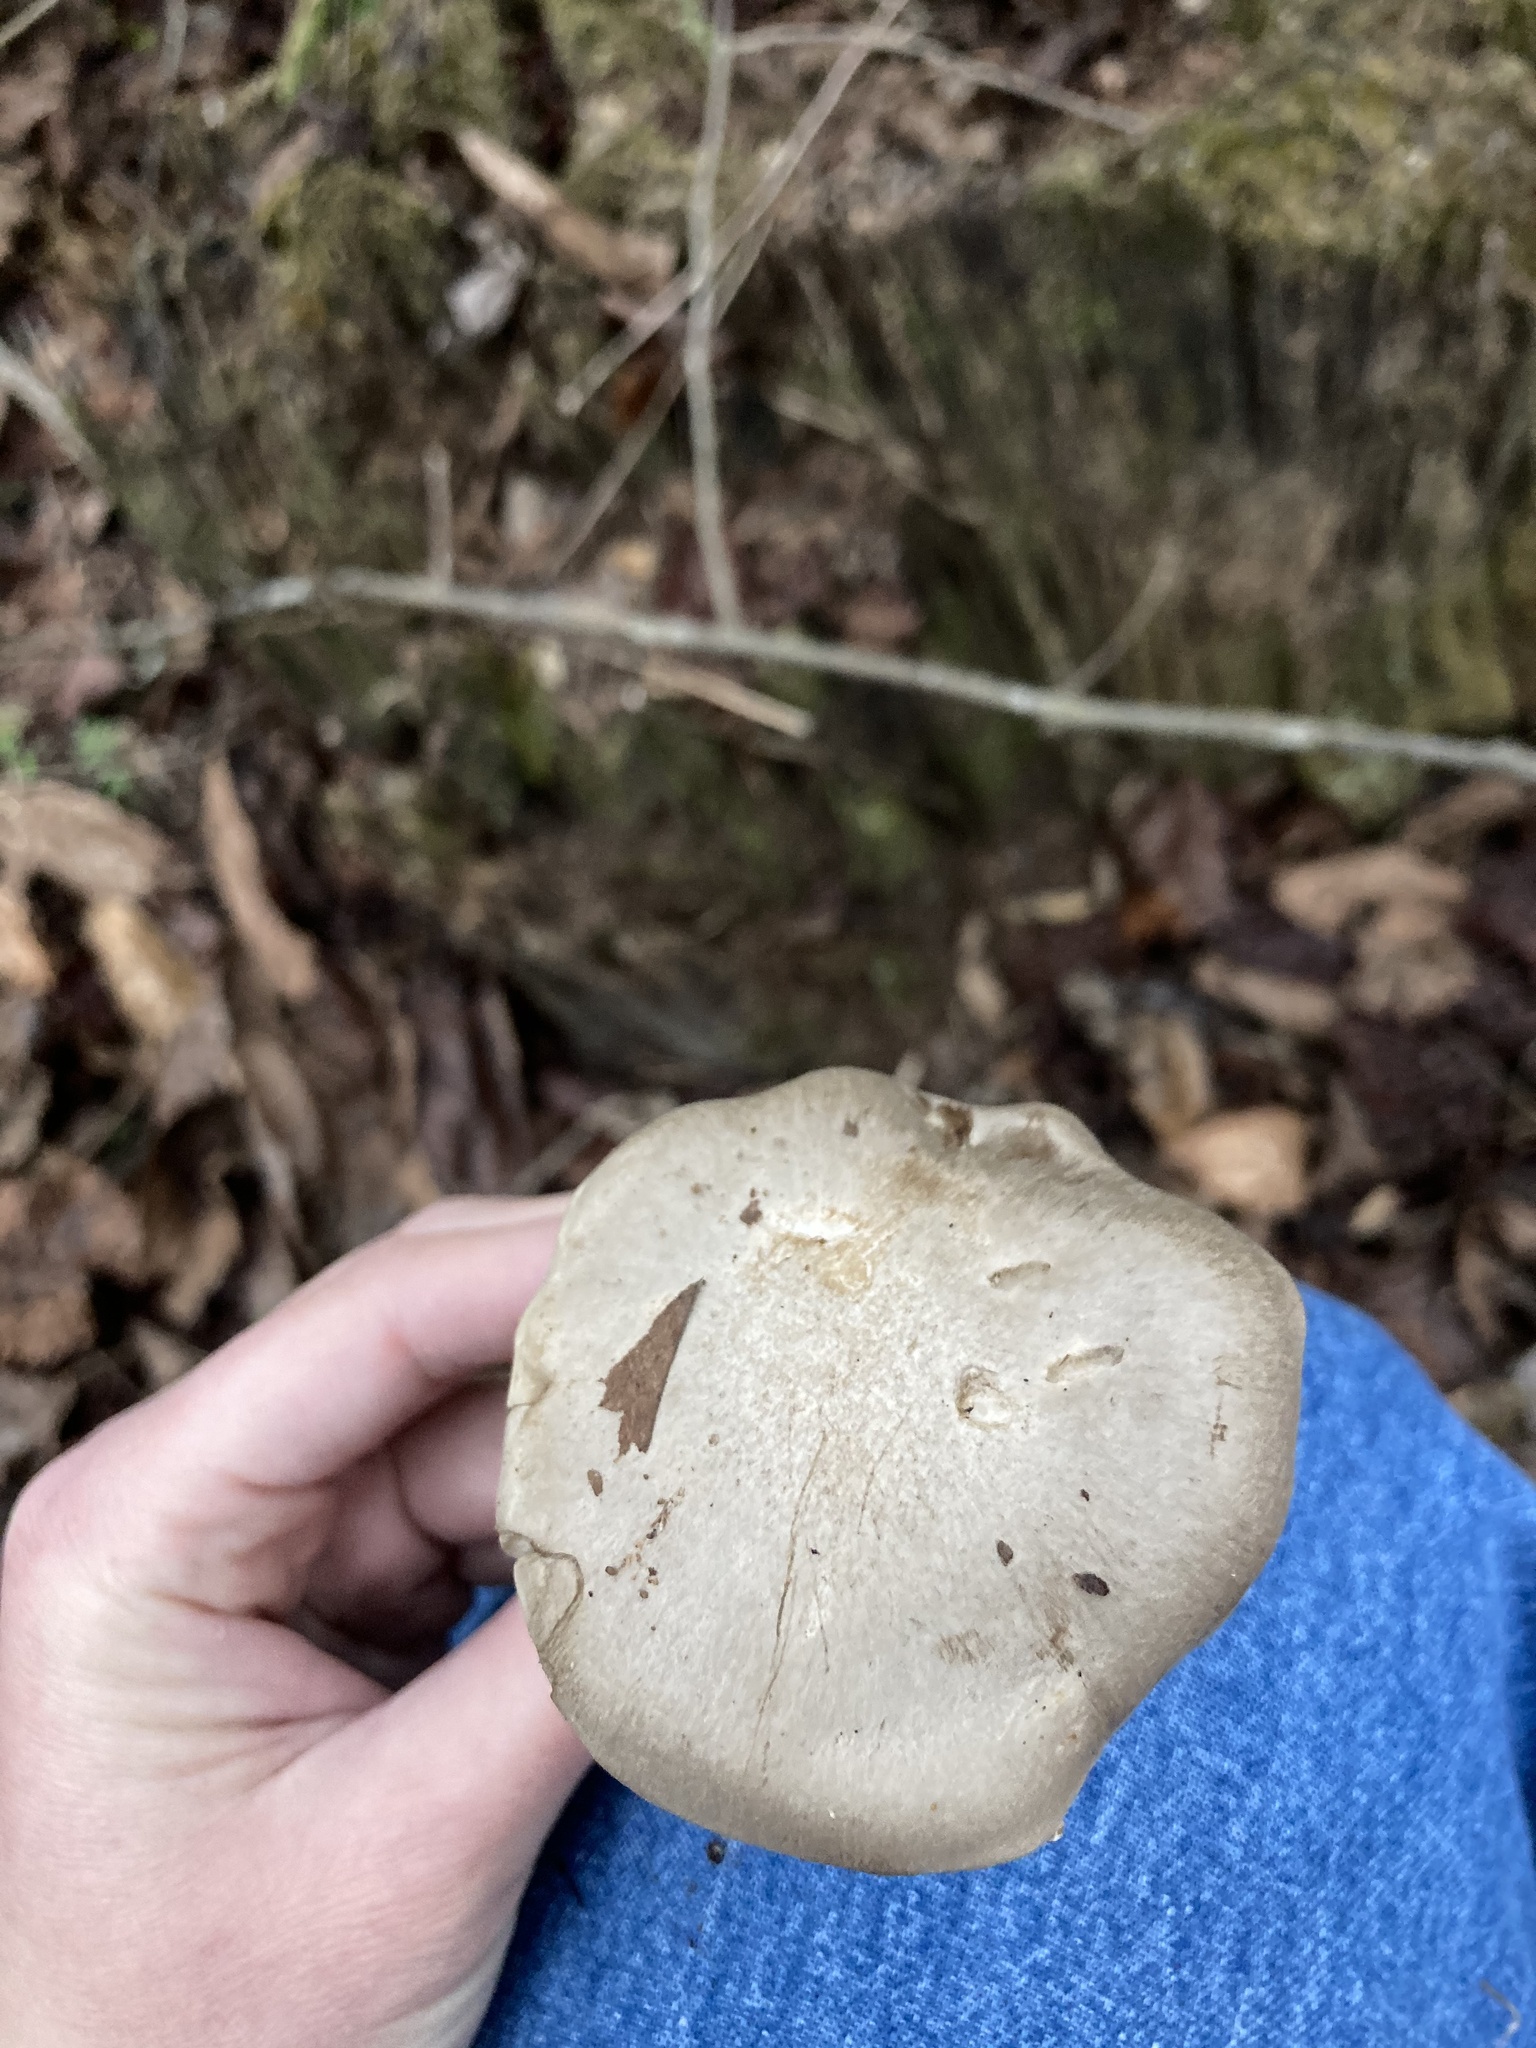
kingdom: Fungi
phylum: Basidiomycota
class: Agaricomycetes
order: Agaricales
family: Entolomataceae
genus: Entoloma
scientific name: Entoloma abortivum
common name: Aborted entoloma
